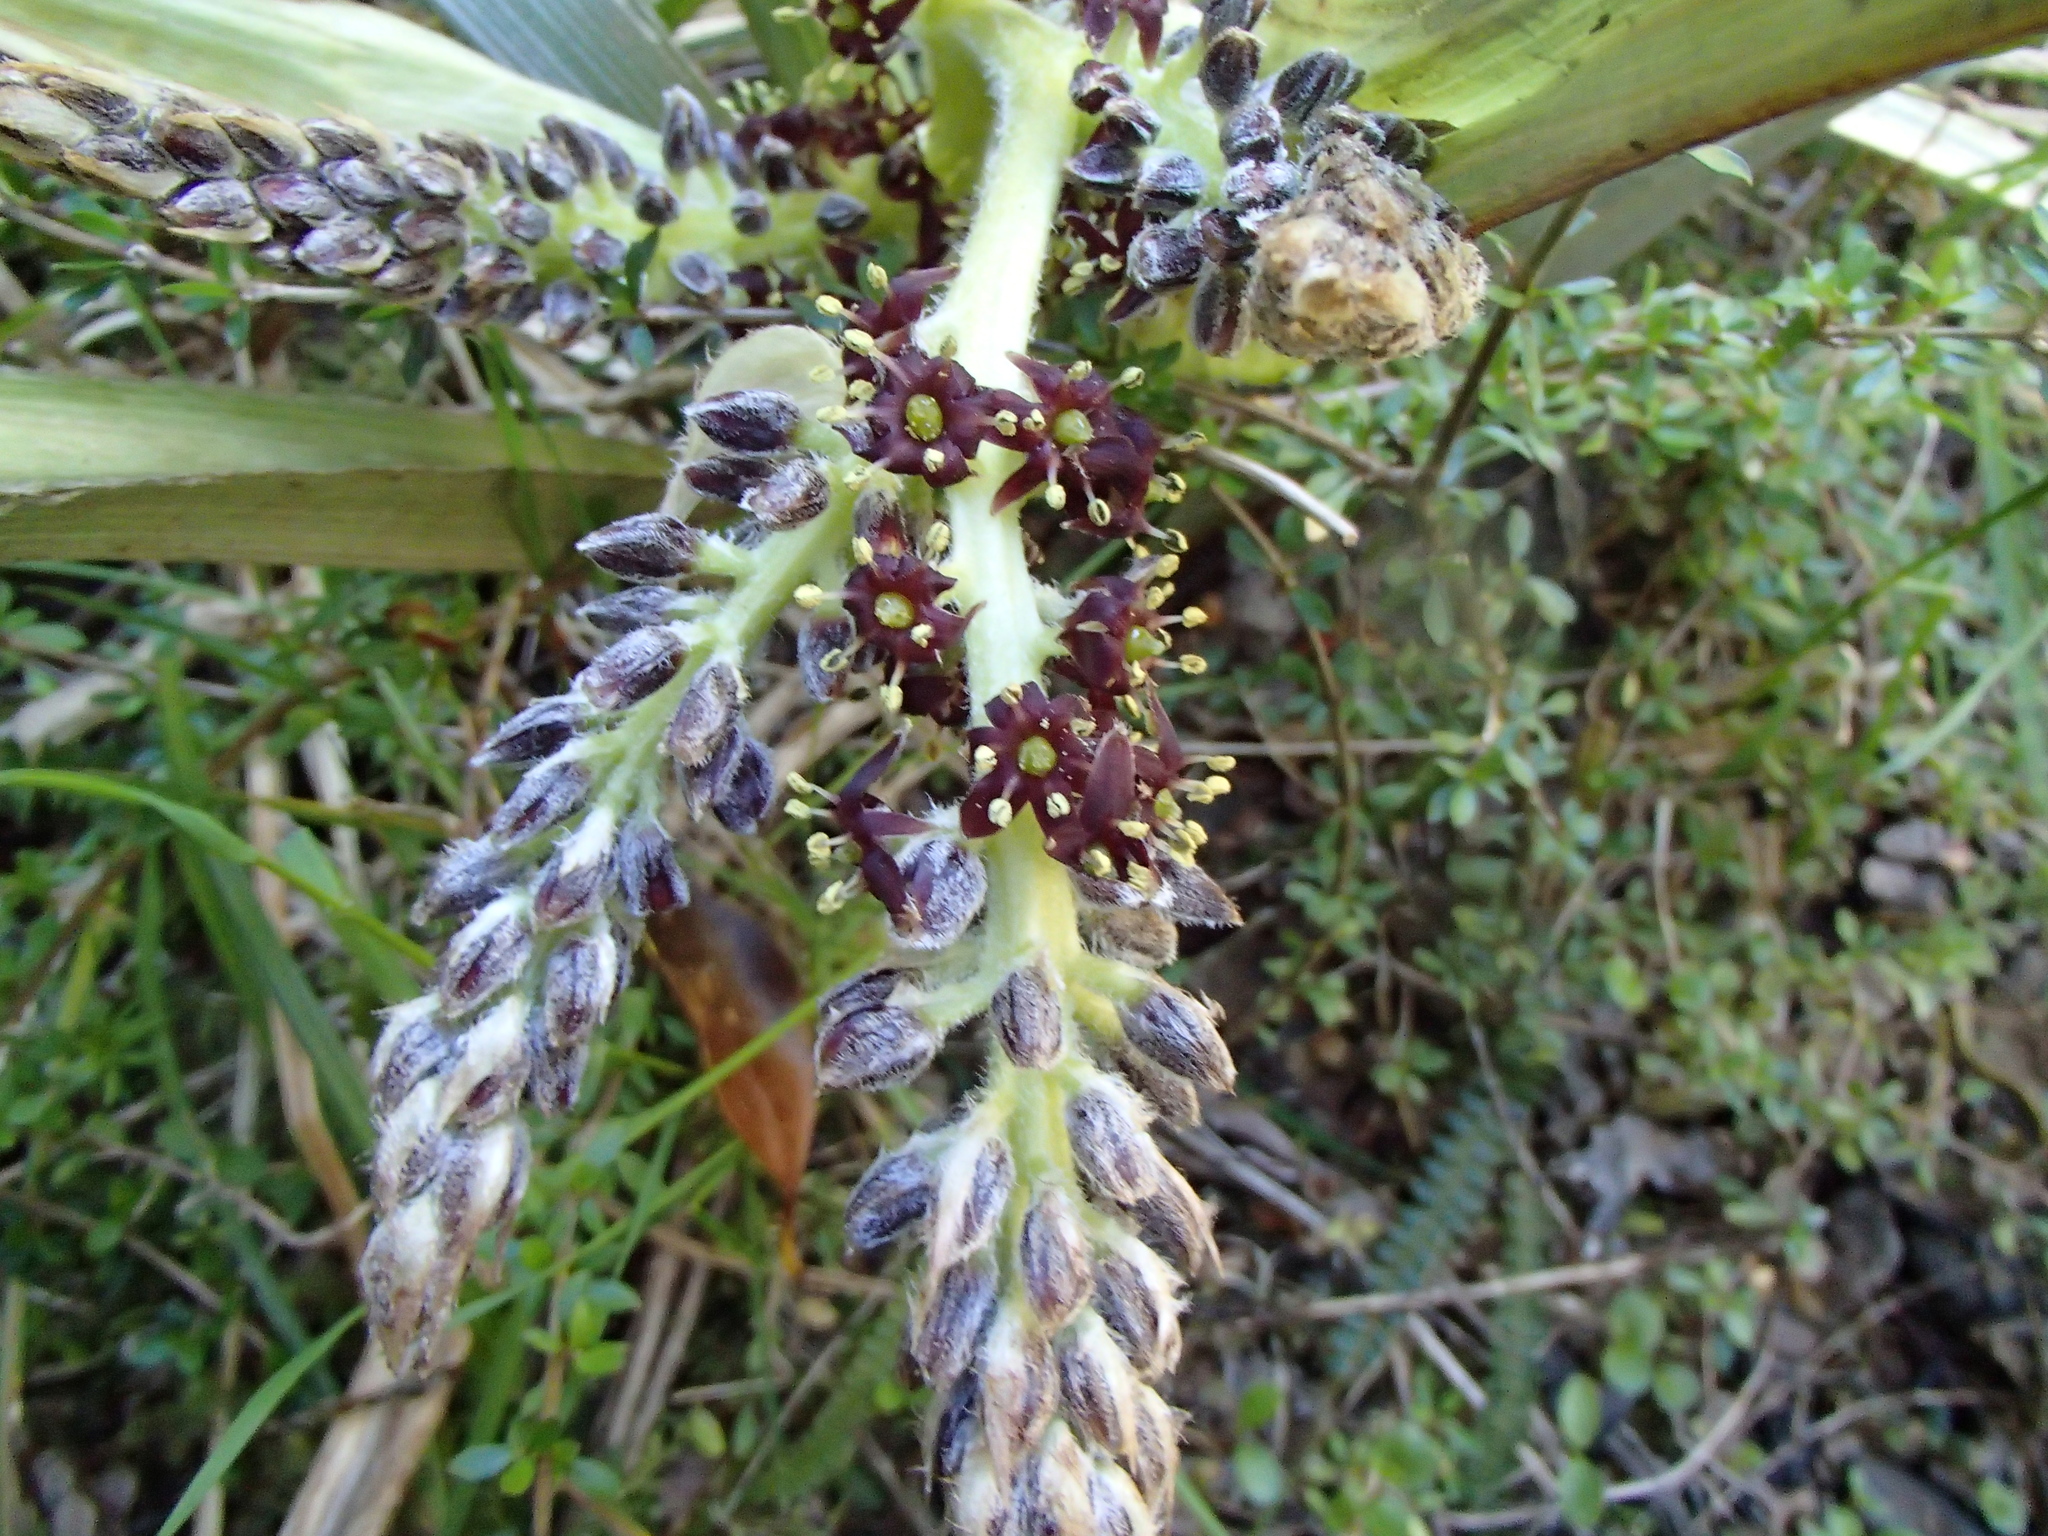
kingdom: Plantae
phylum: Tracheophyta
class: Liliopsida
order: Asparagales
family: Asteliaceae
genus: Astelia
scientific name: Astelia fragrans
